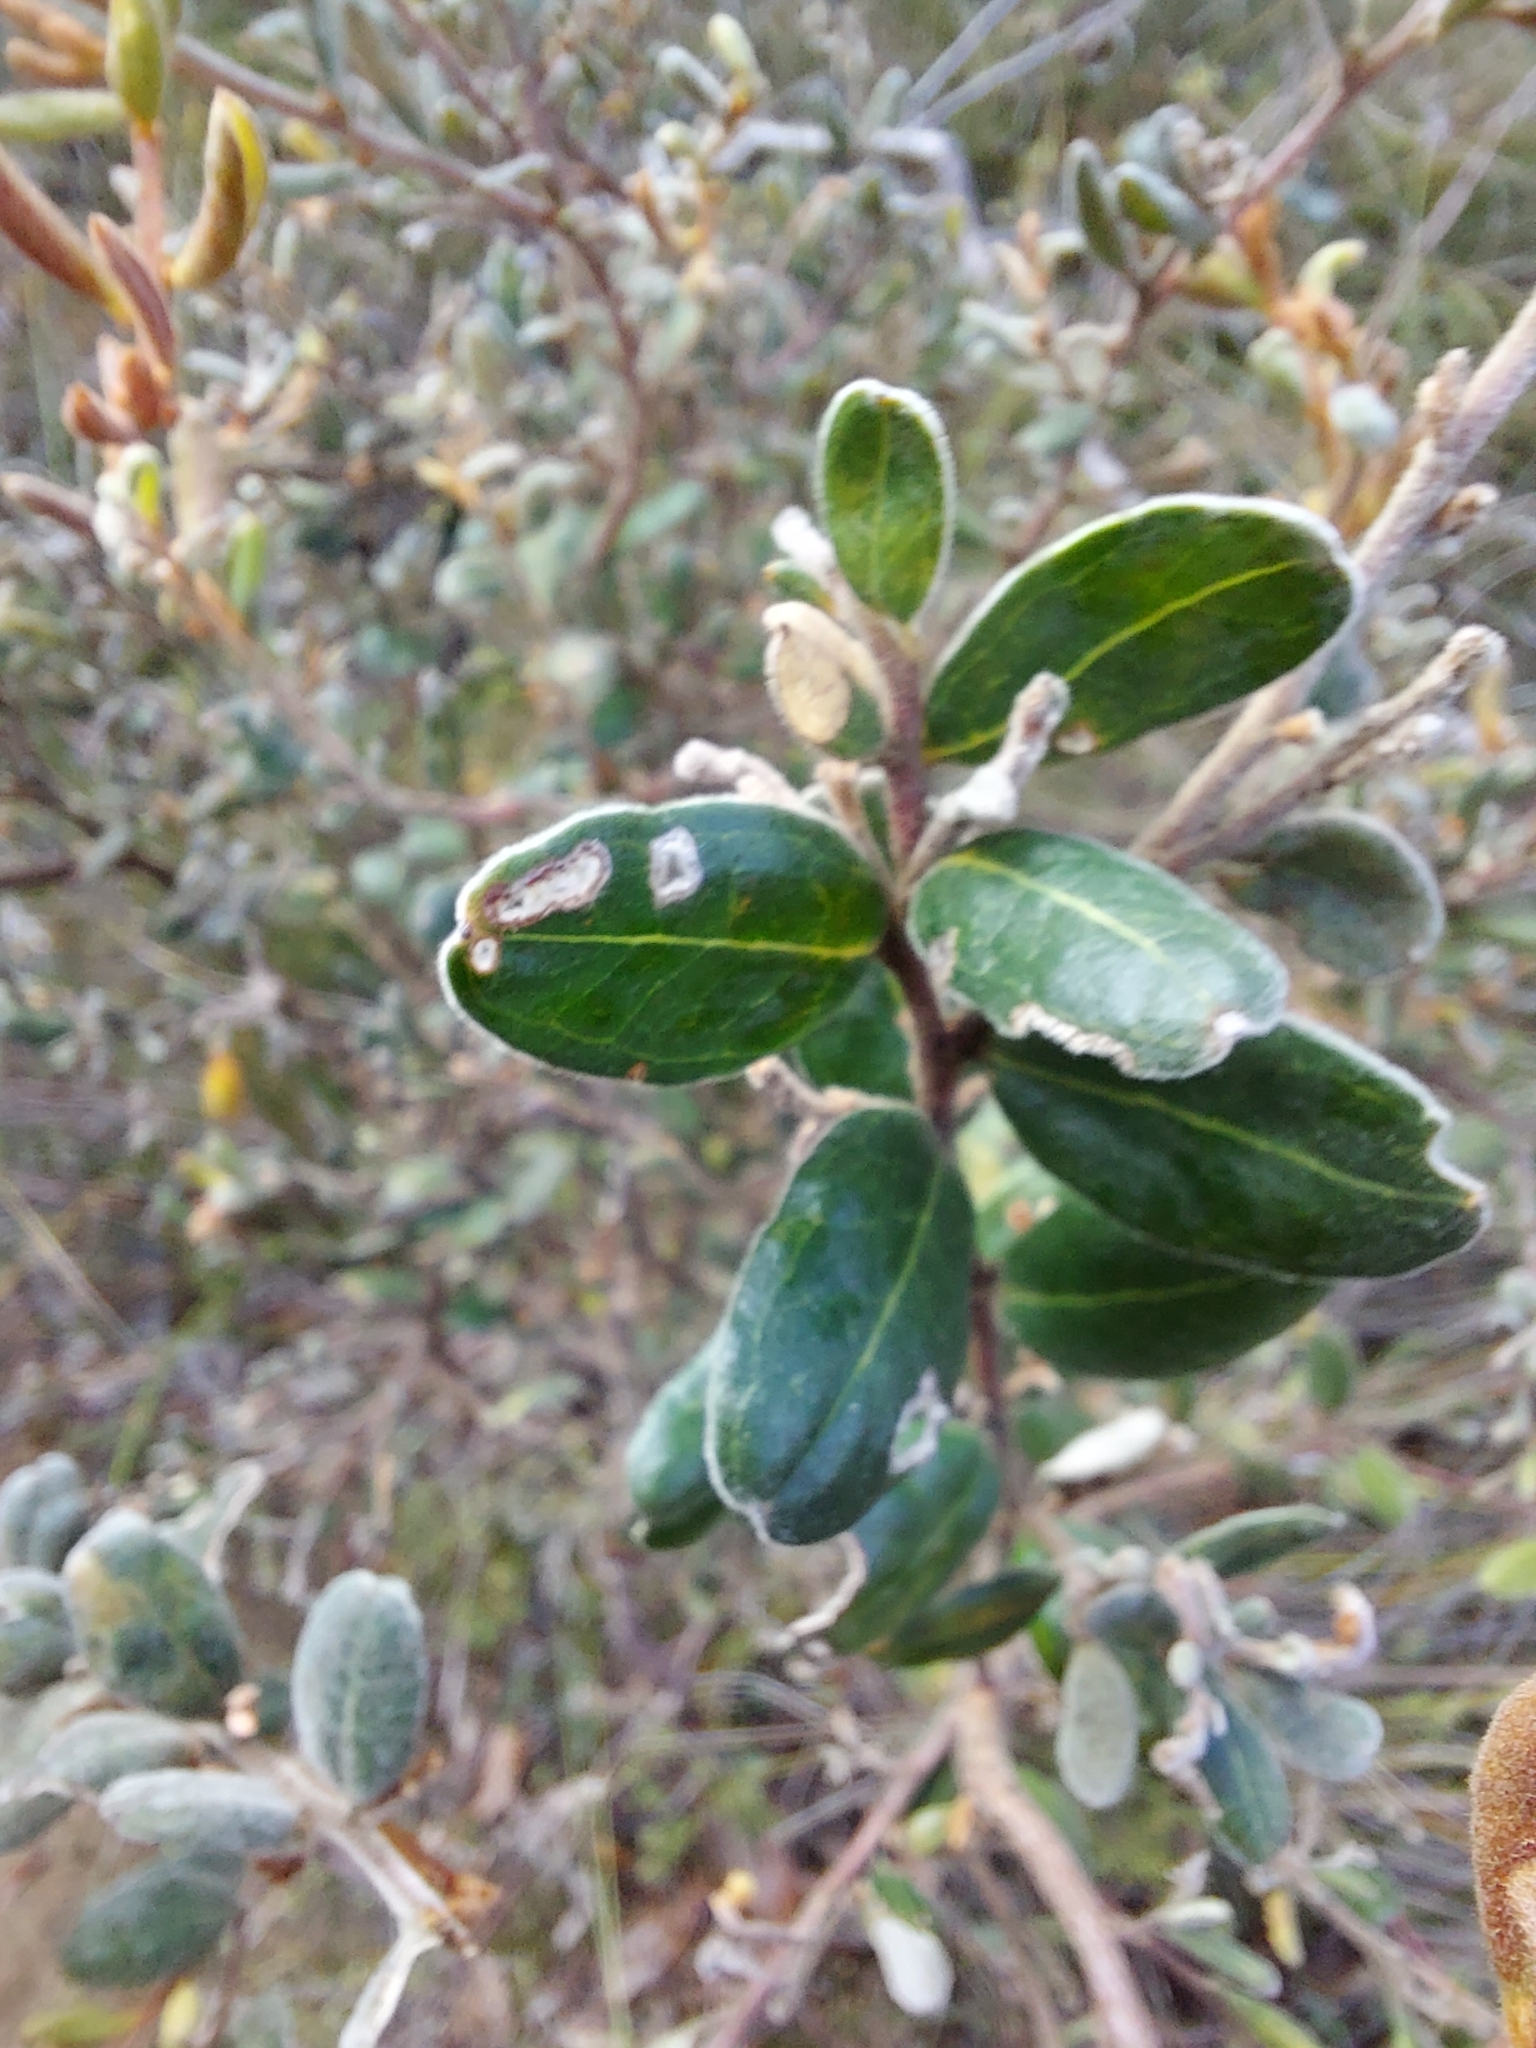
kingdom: Plantae
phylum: Tracheophyta
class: Magnoliopsida
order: Proteales
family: Proteaceae
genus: Grevillea
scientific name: Grevillea chrysophaea
